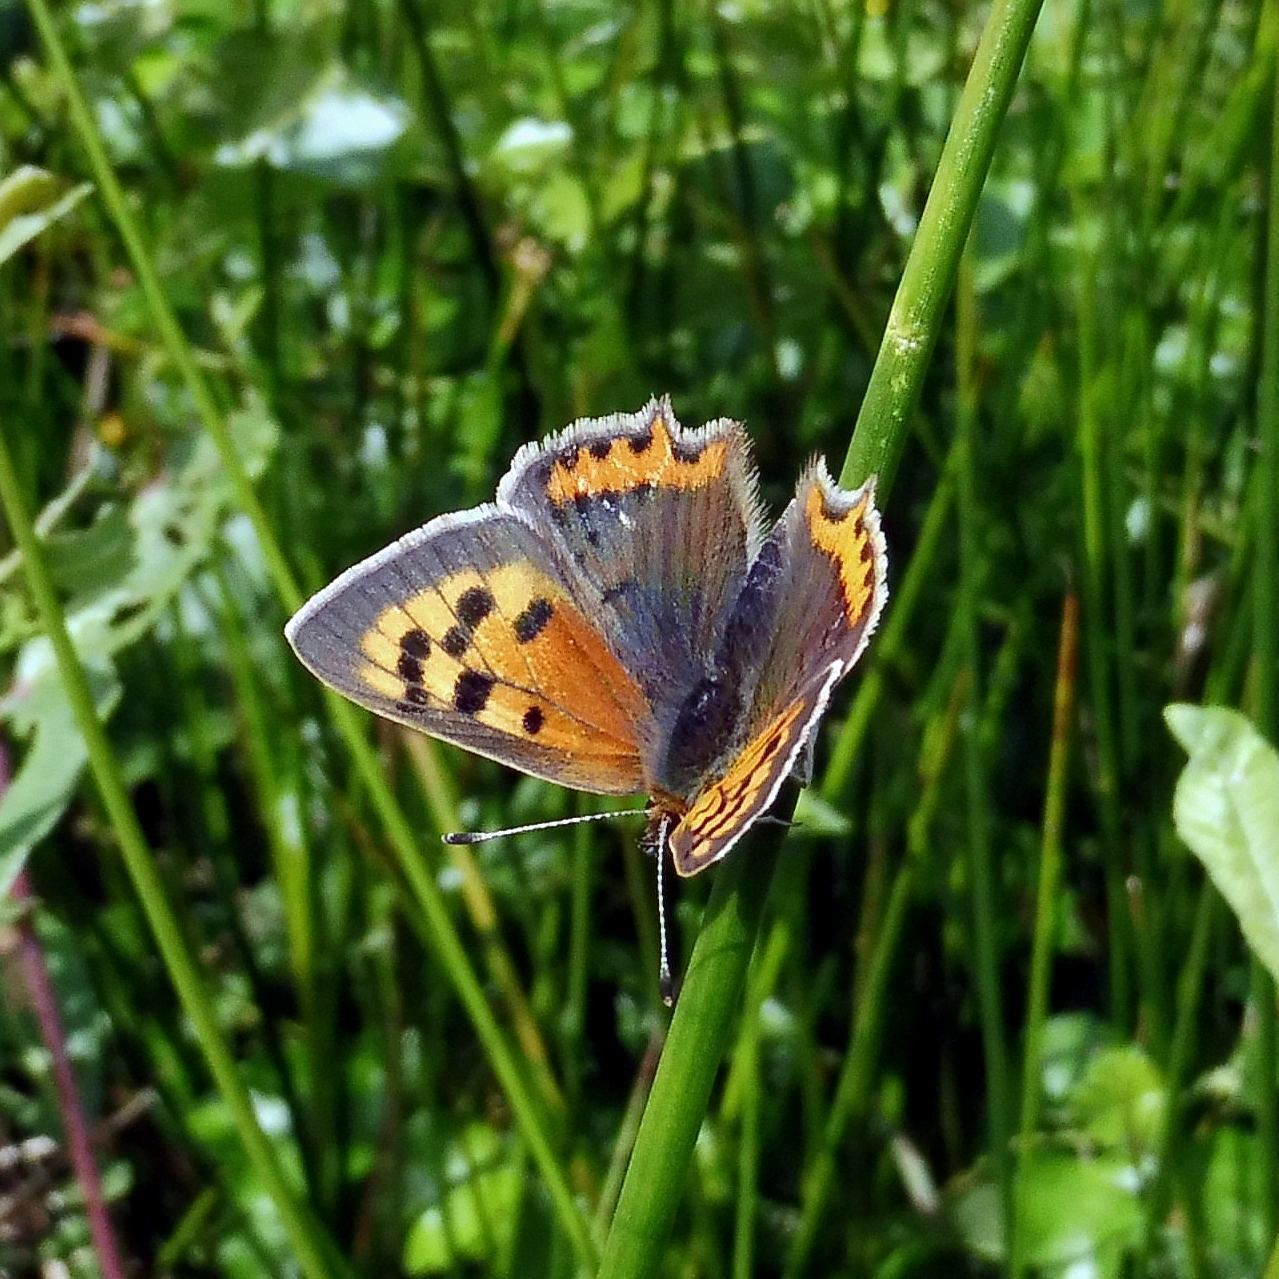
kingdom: Animalia
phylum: Arthropoda
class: Insecta
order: Lepidoptera
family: Lycaenidae
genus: Lycaena
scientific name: Lycaena phlaeas
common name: Small copper
